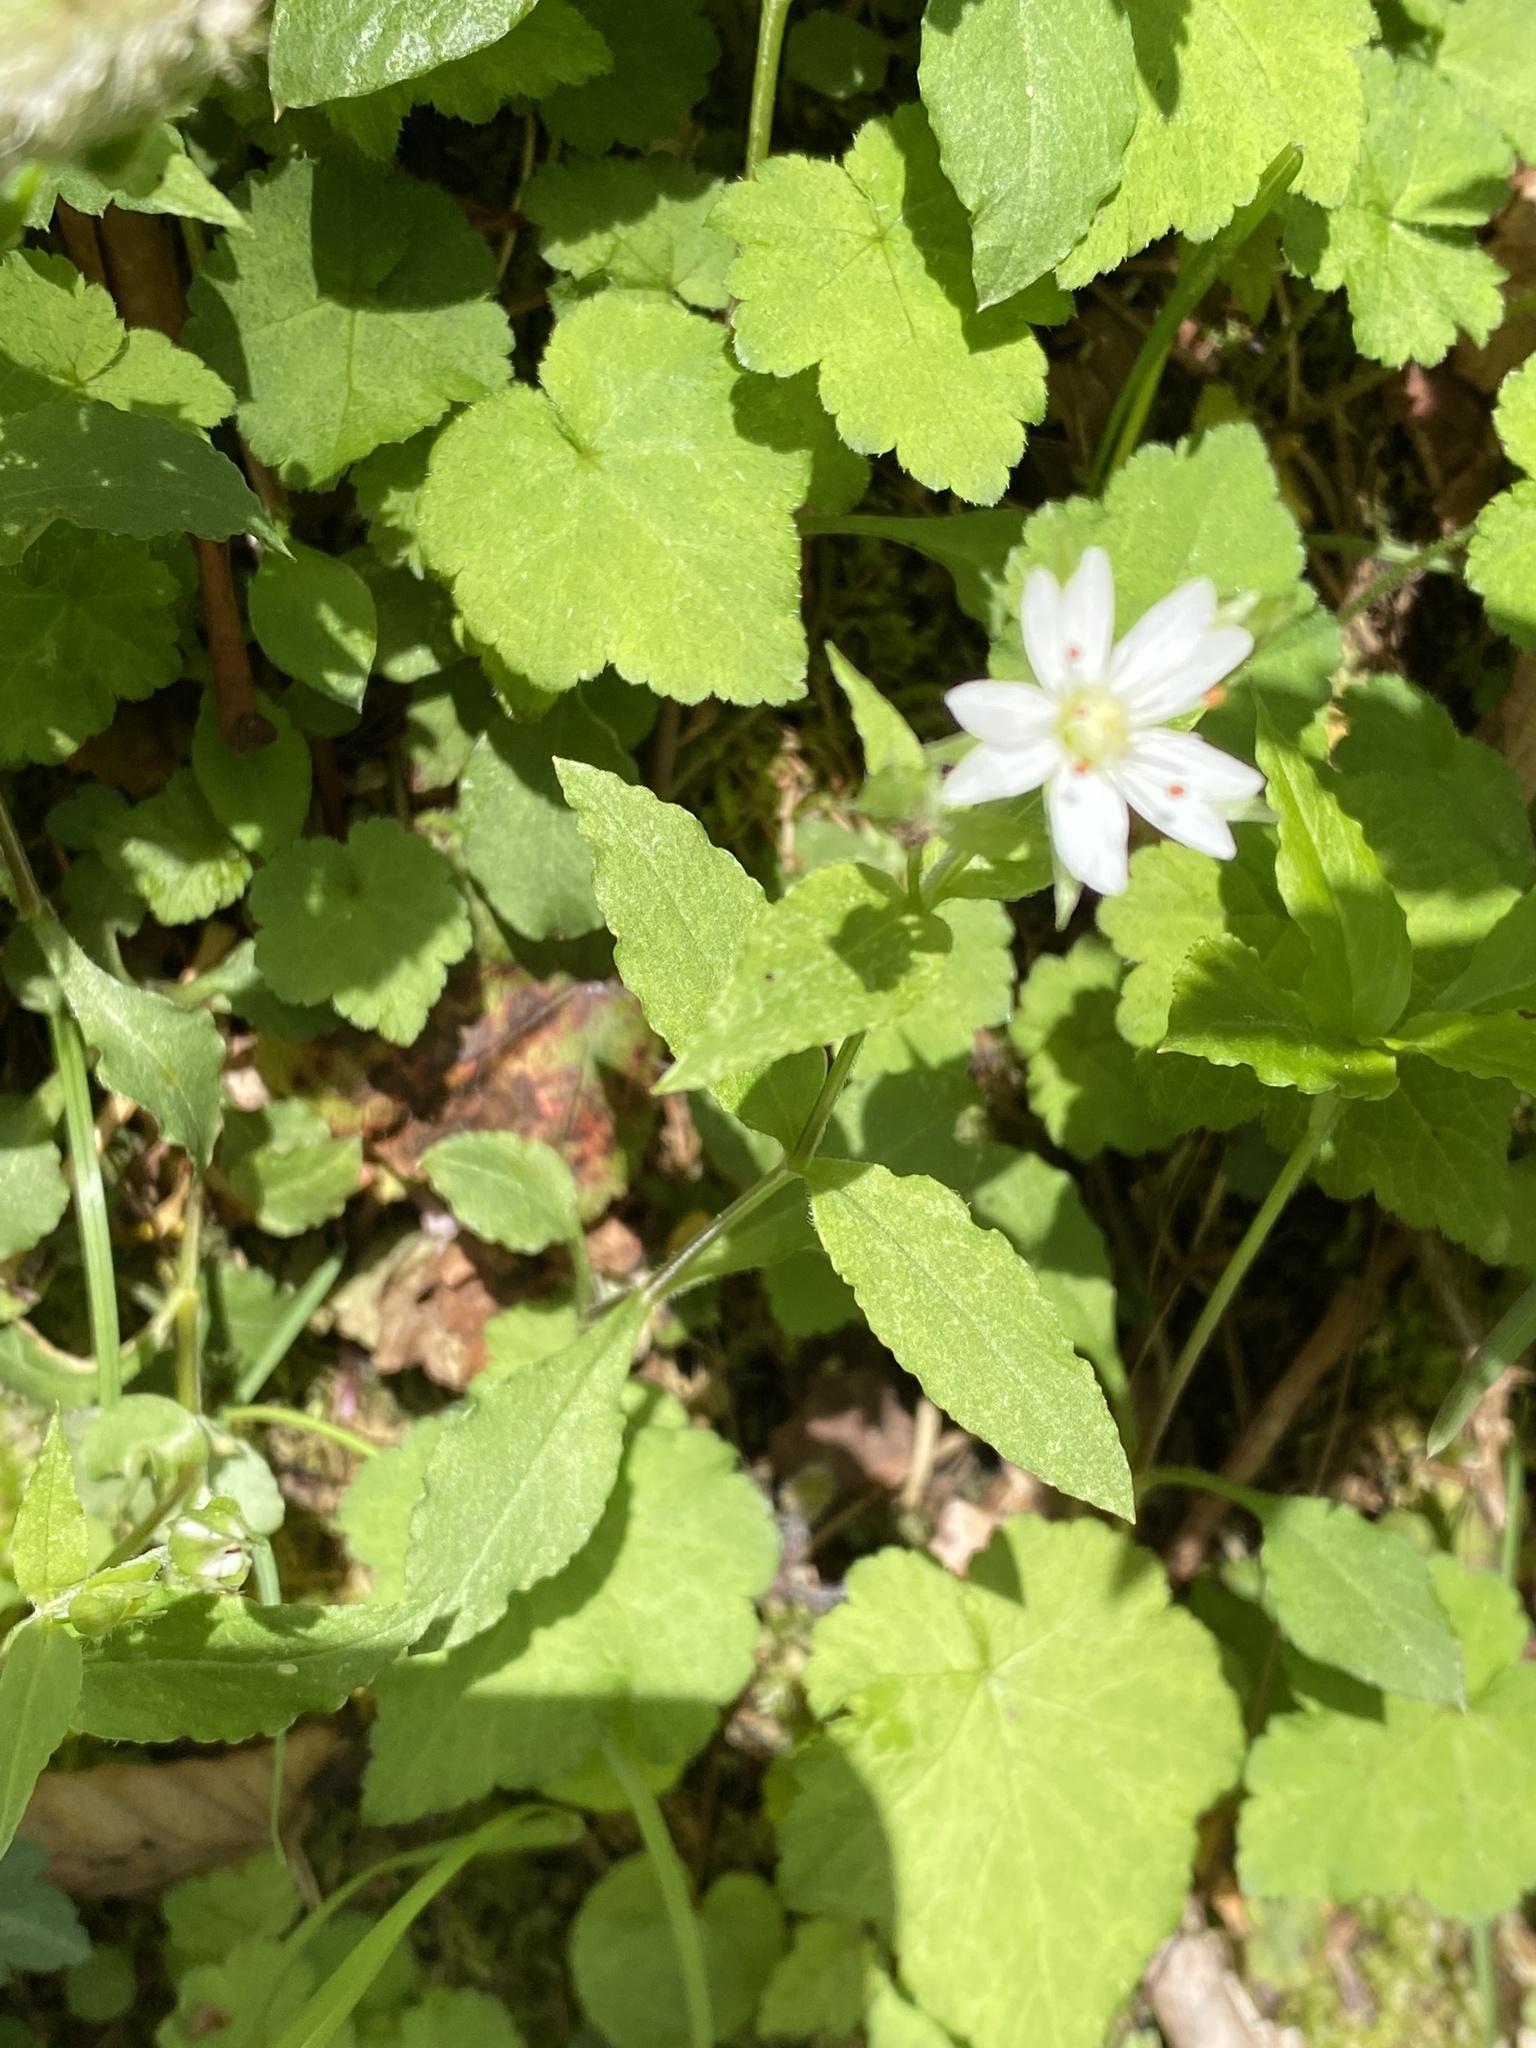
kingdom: Plantae
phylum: Tracheophyta
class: Magnoliopsida
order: Caryophyllales
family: Caryophyllaceae
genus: Stellaria
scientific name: Stellaria corei
